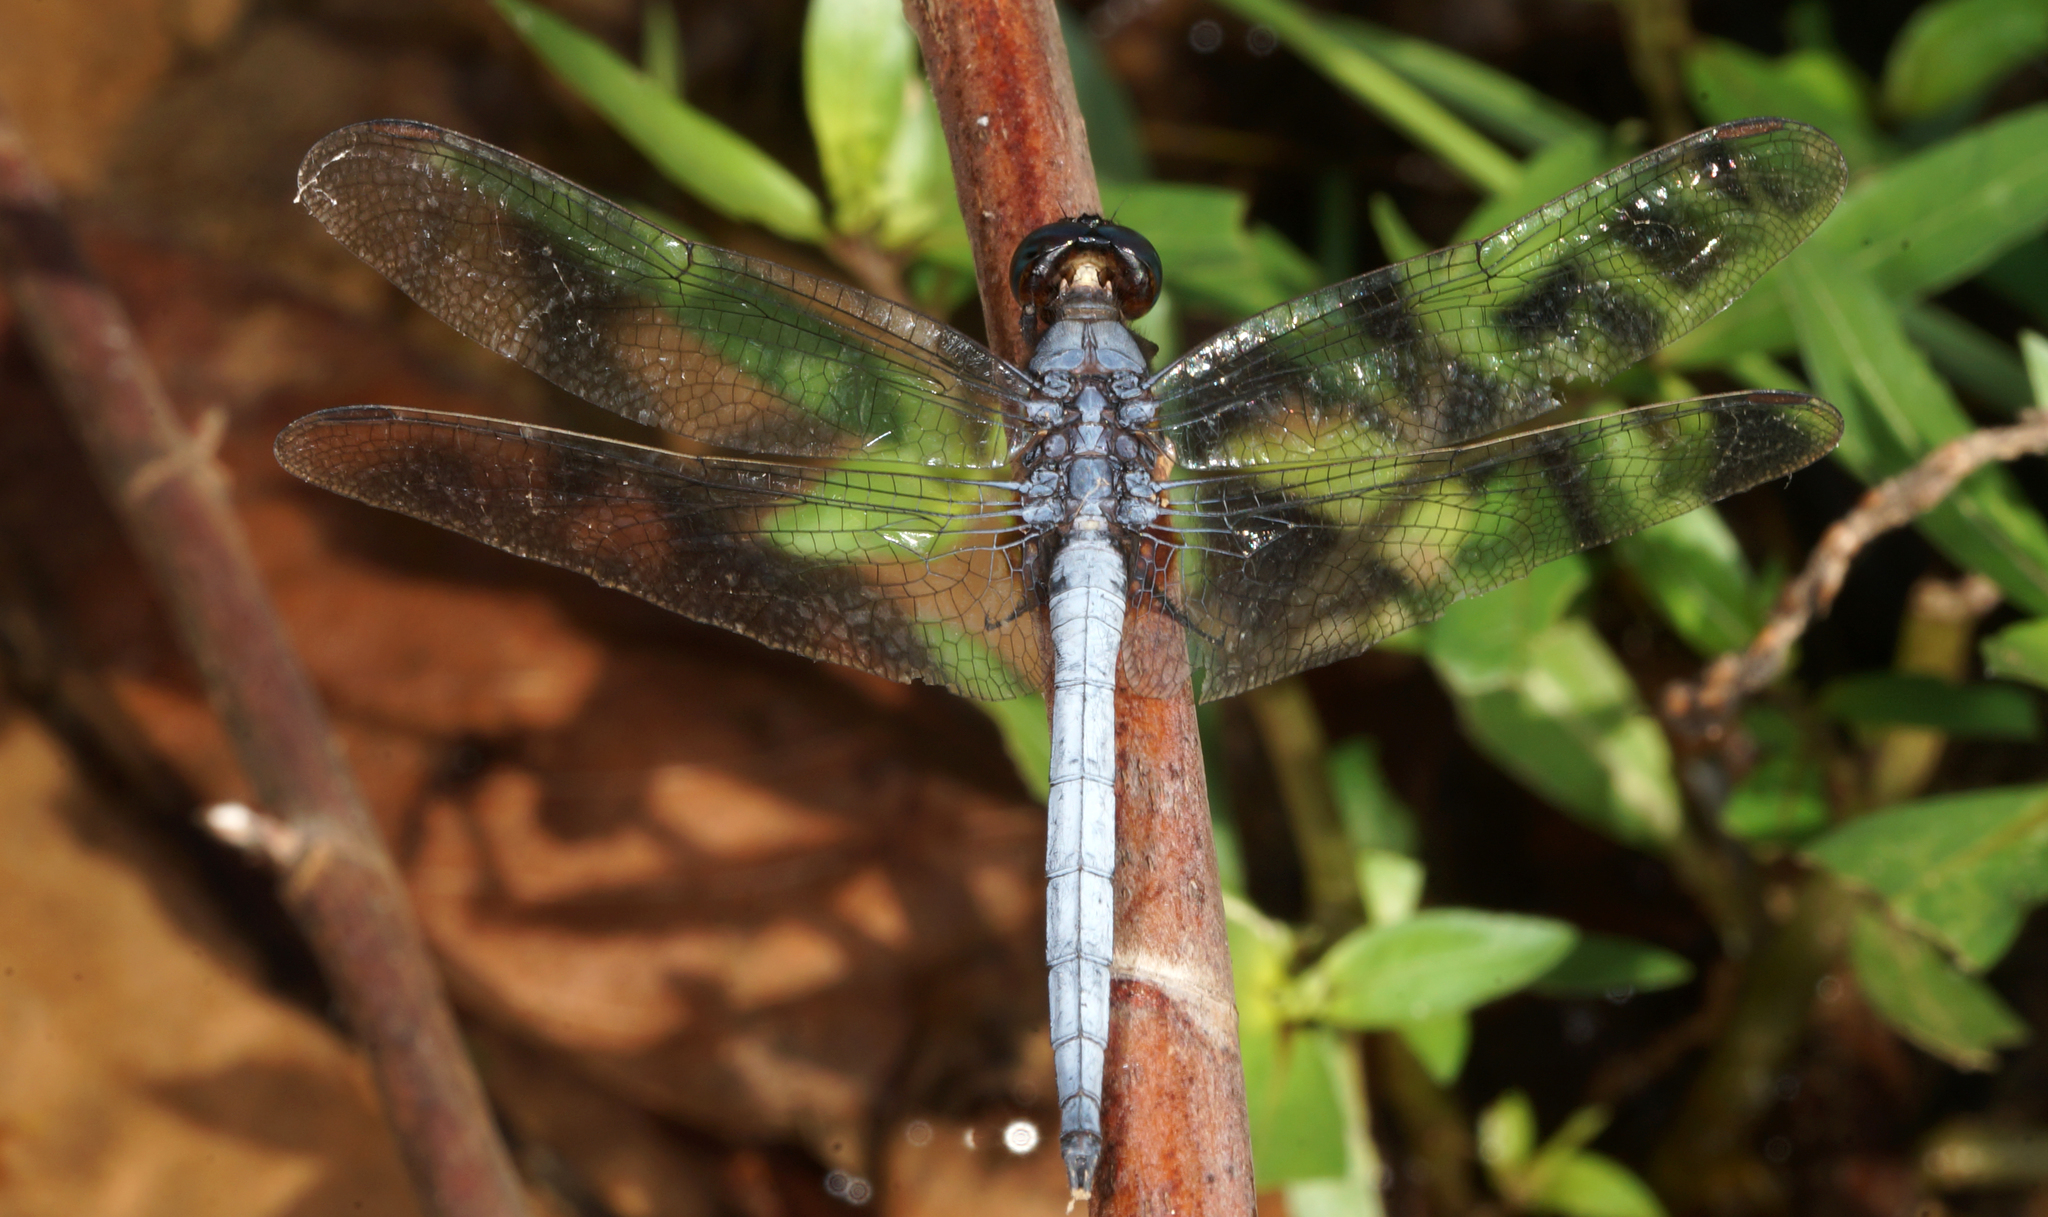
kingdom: Animalia
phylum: Arthropoda
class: Insecta
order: Odonata
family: Libellulidae
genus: Orthetrum
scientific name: Orthetrum glaucum
